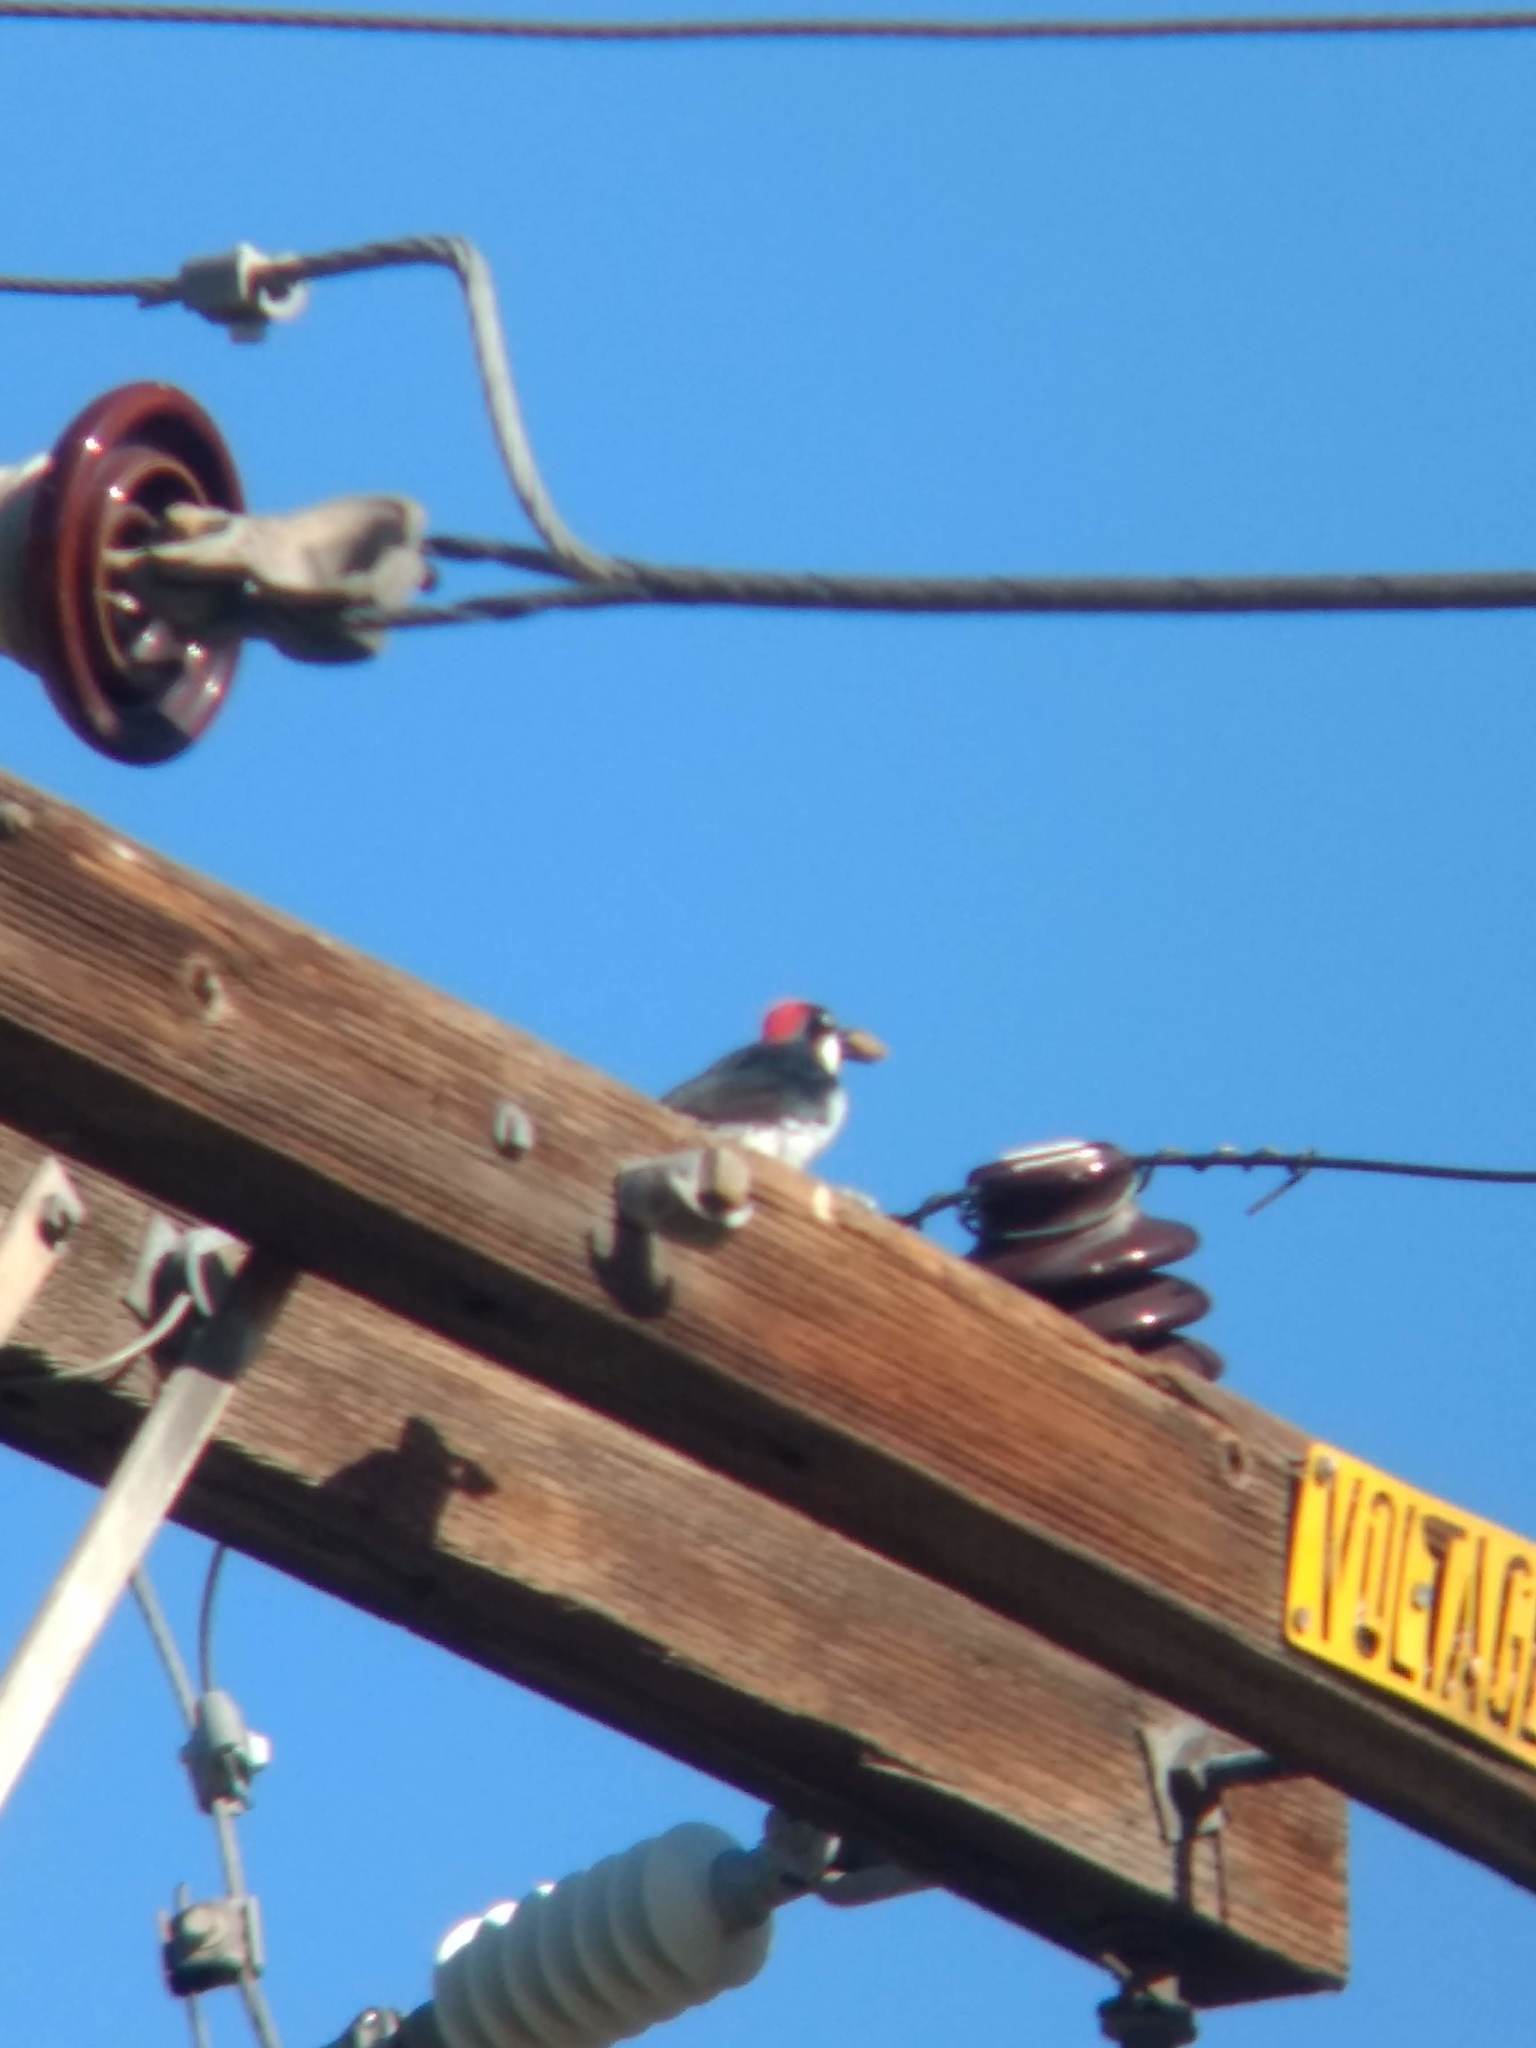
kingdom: Animalia
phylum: Chordata
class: Aves
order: Piciformes
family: Picidae
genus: Melanerpes
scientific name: Melanerpes formicivorus
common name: Acorn woodpecker
